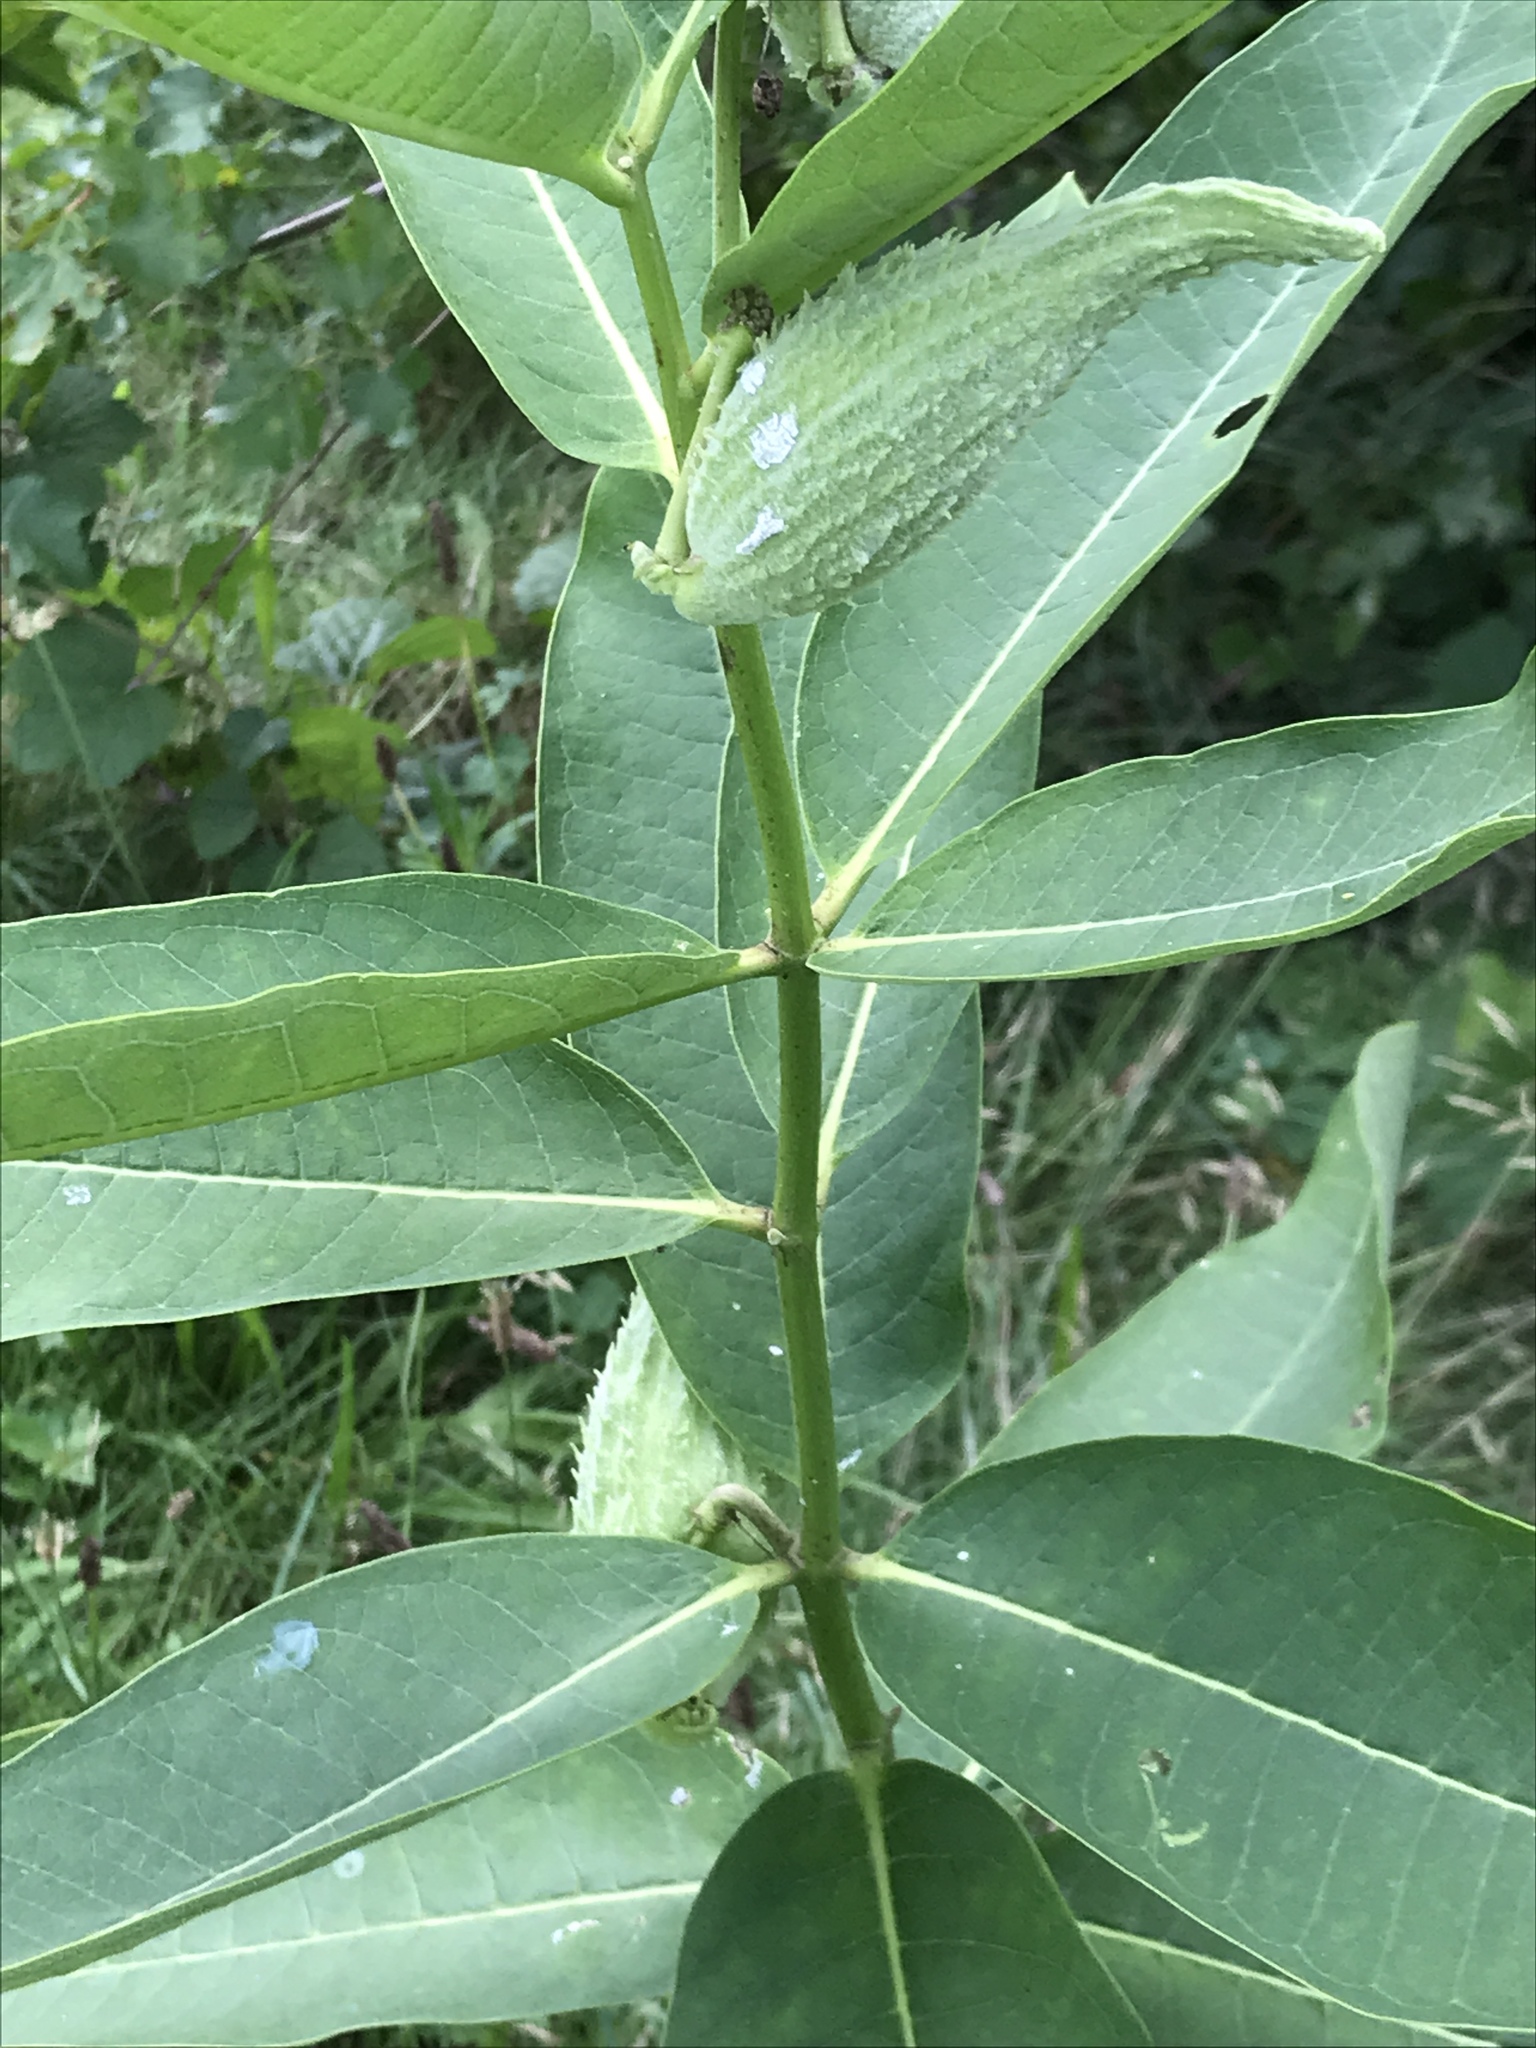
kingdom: Plantae
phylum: Tracheophyta
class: Magnoliopsida
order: Gentianales
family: Apocynaceae
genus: Asclepias
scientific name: Asclepias syriaca
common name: Common milkweed
